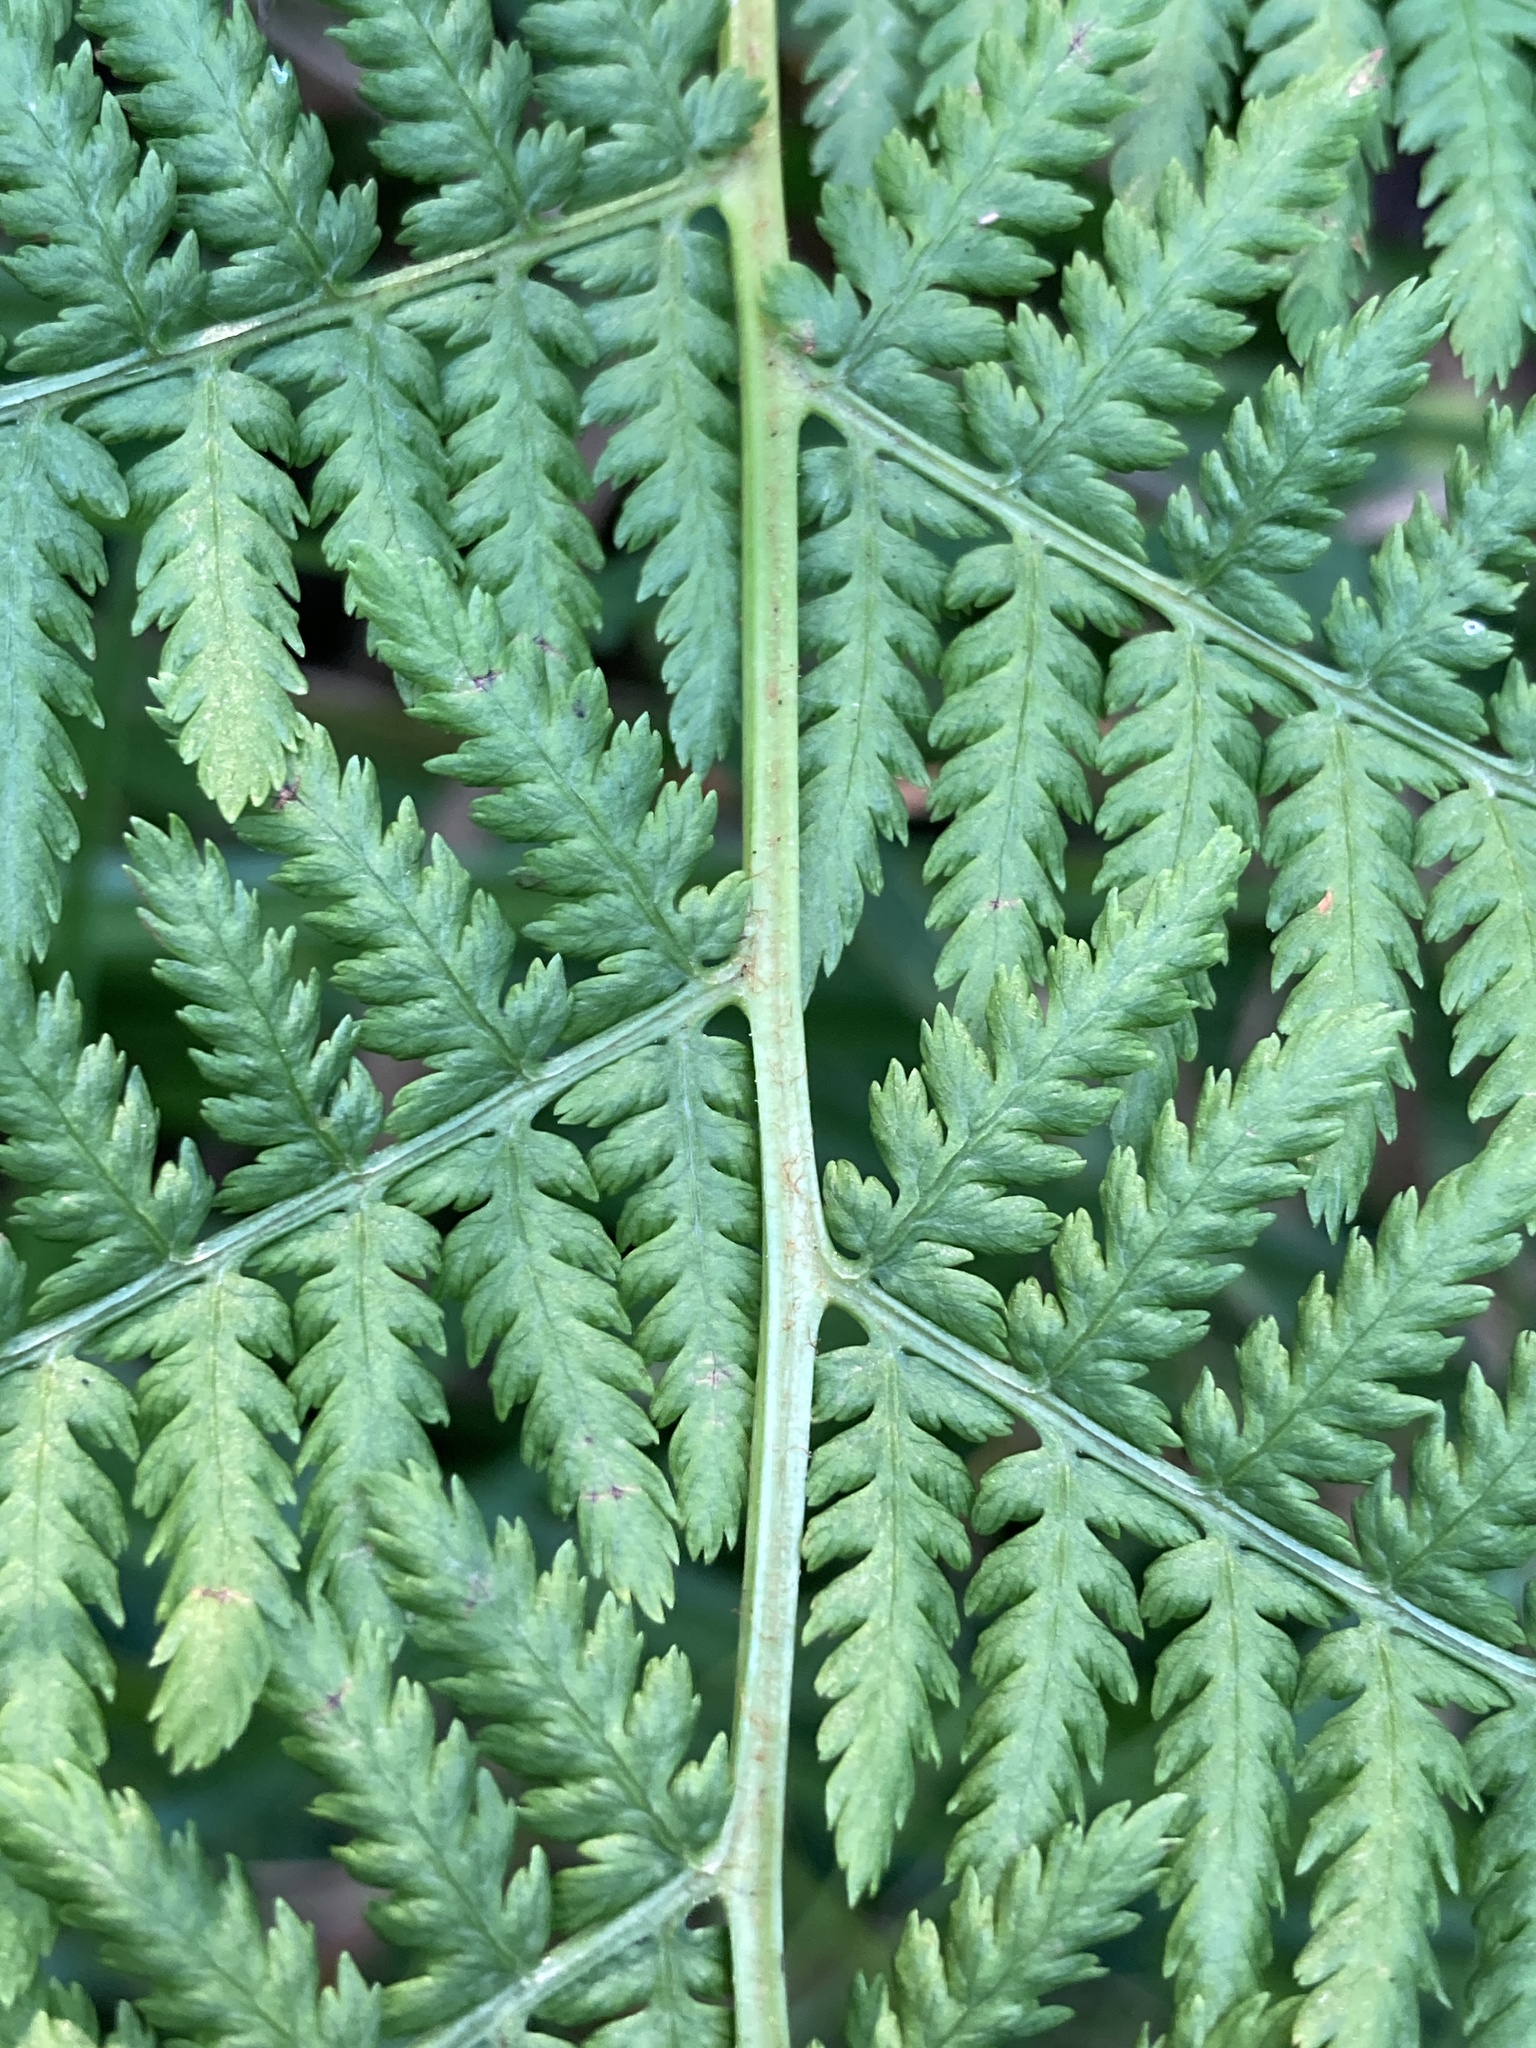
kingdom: Plantae
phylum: Tracheophyta
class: Polypodiopsida
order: Polypodiales
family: Athyriaceae
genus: Athyrium
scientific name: Athyrium filix-femina
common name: Lady fern
